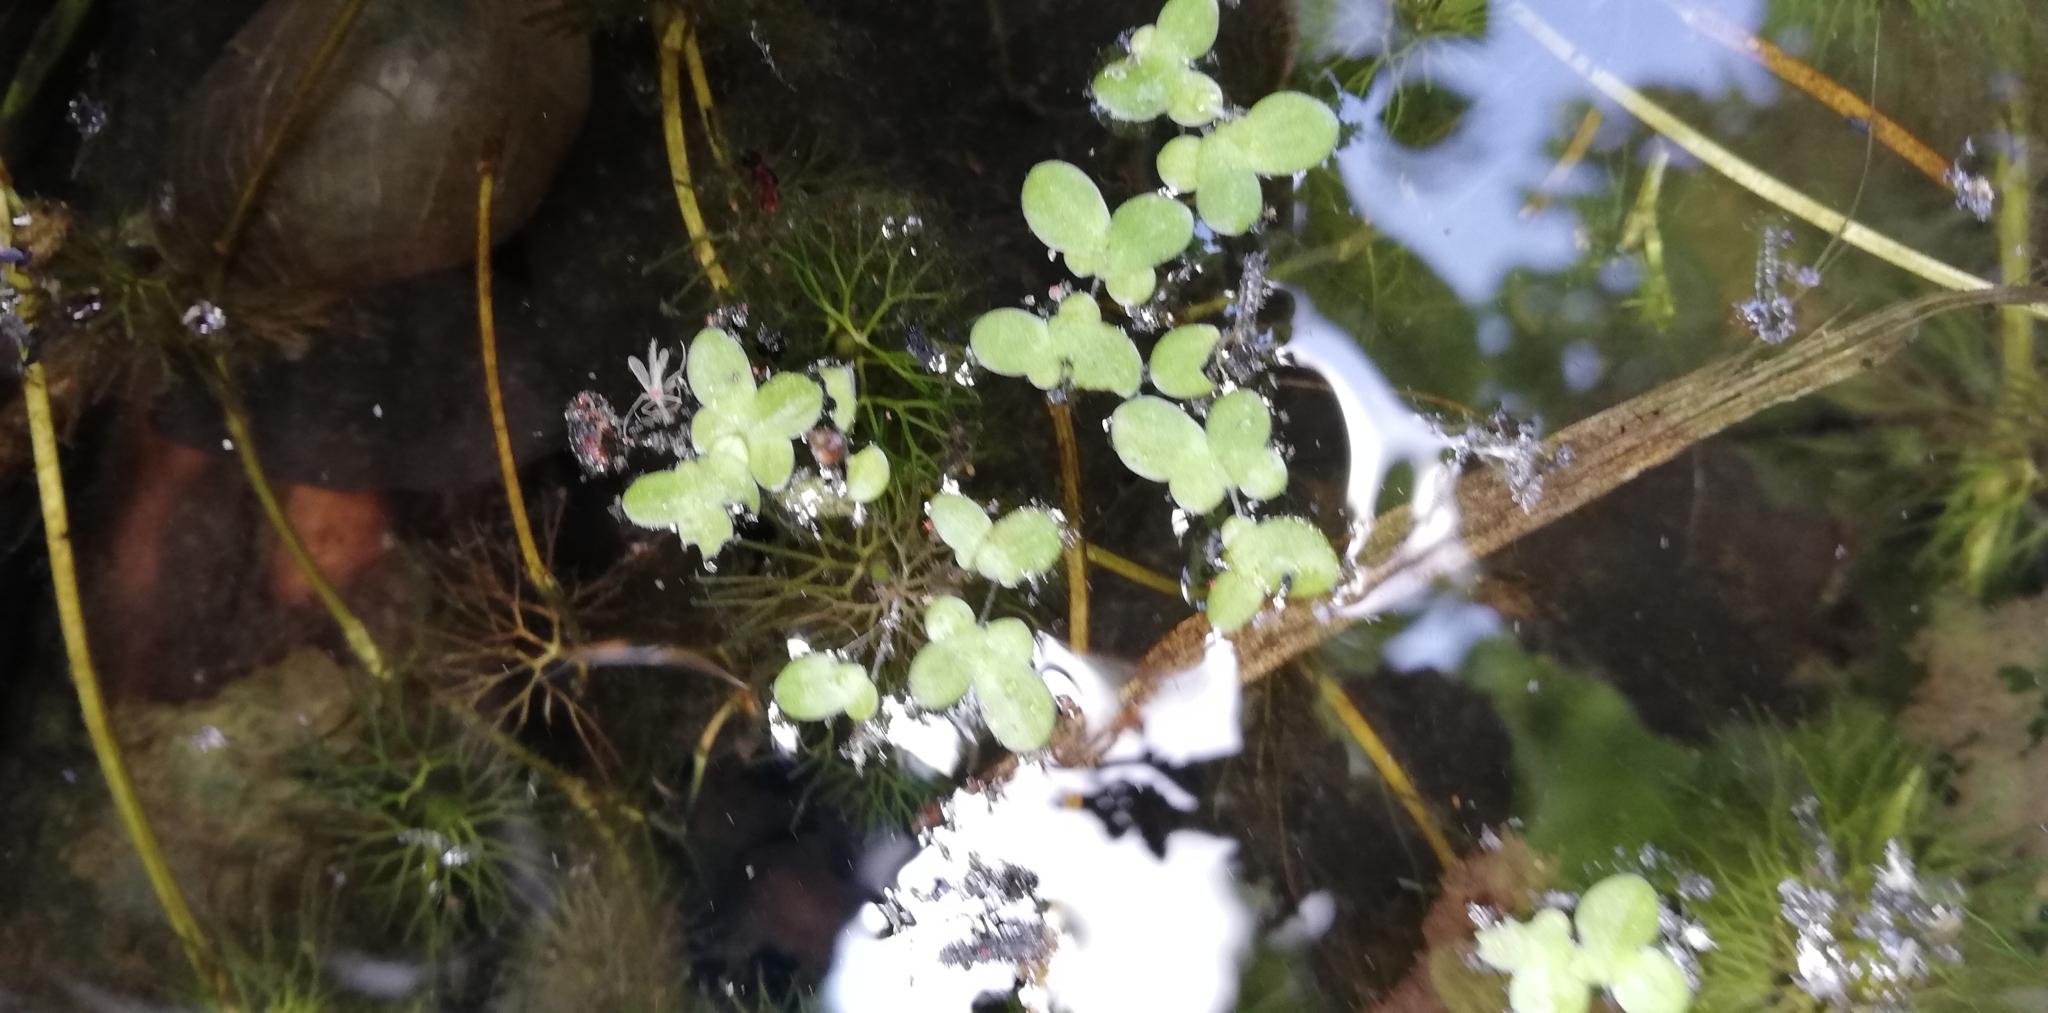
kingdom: Plantae
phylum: Tracheophyta
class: Liliopsida
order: Alismatales
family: Araceae
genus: Lemna
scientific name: Lemna minor
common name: Common duckweed
